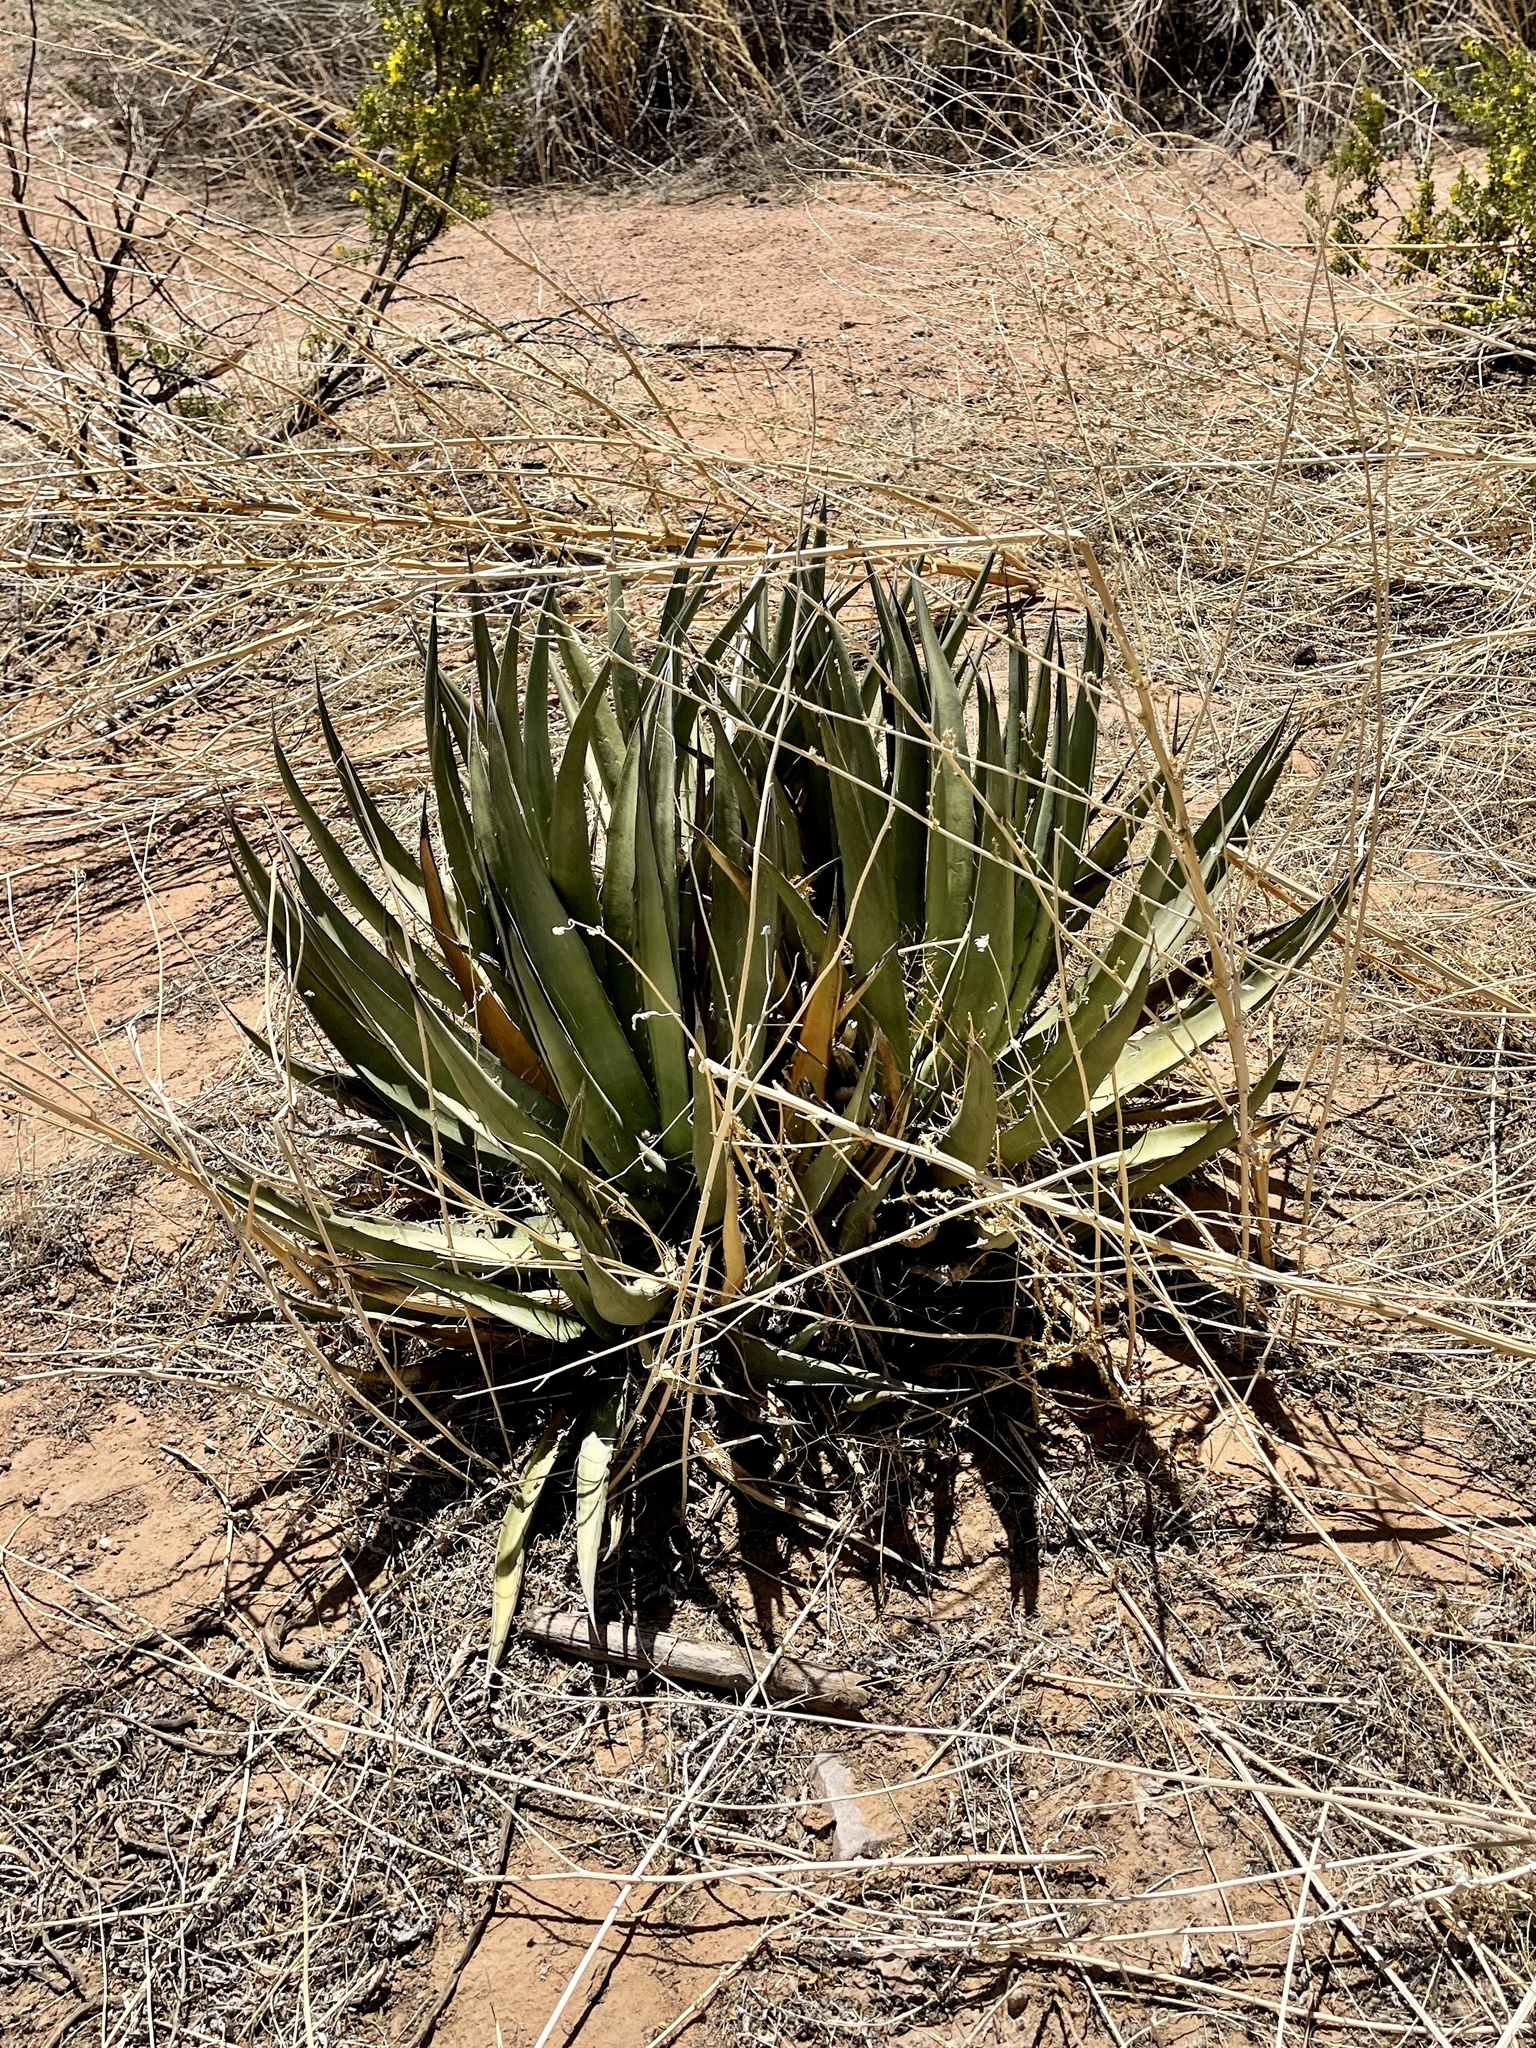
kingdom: Plantae
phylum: Tracheophyta
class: Liliopsida
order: Asparagales
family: Asparagaceae
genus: Agave
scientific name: Agave lechuguilla
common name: Lecheguilla agave
